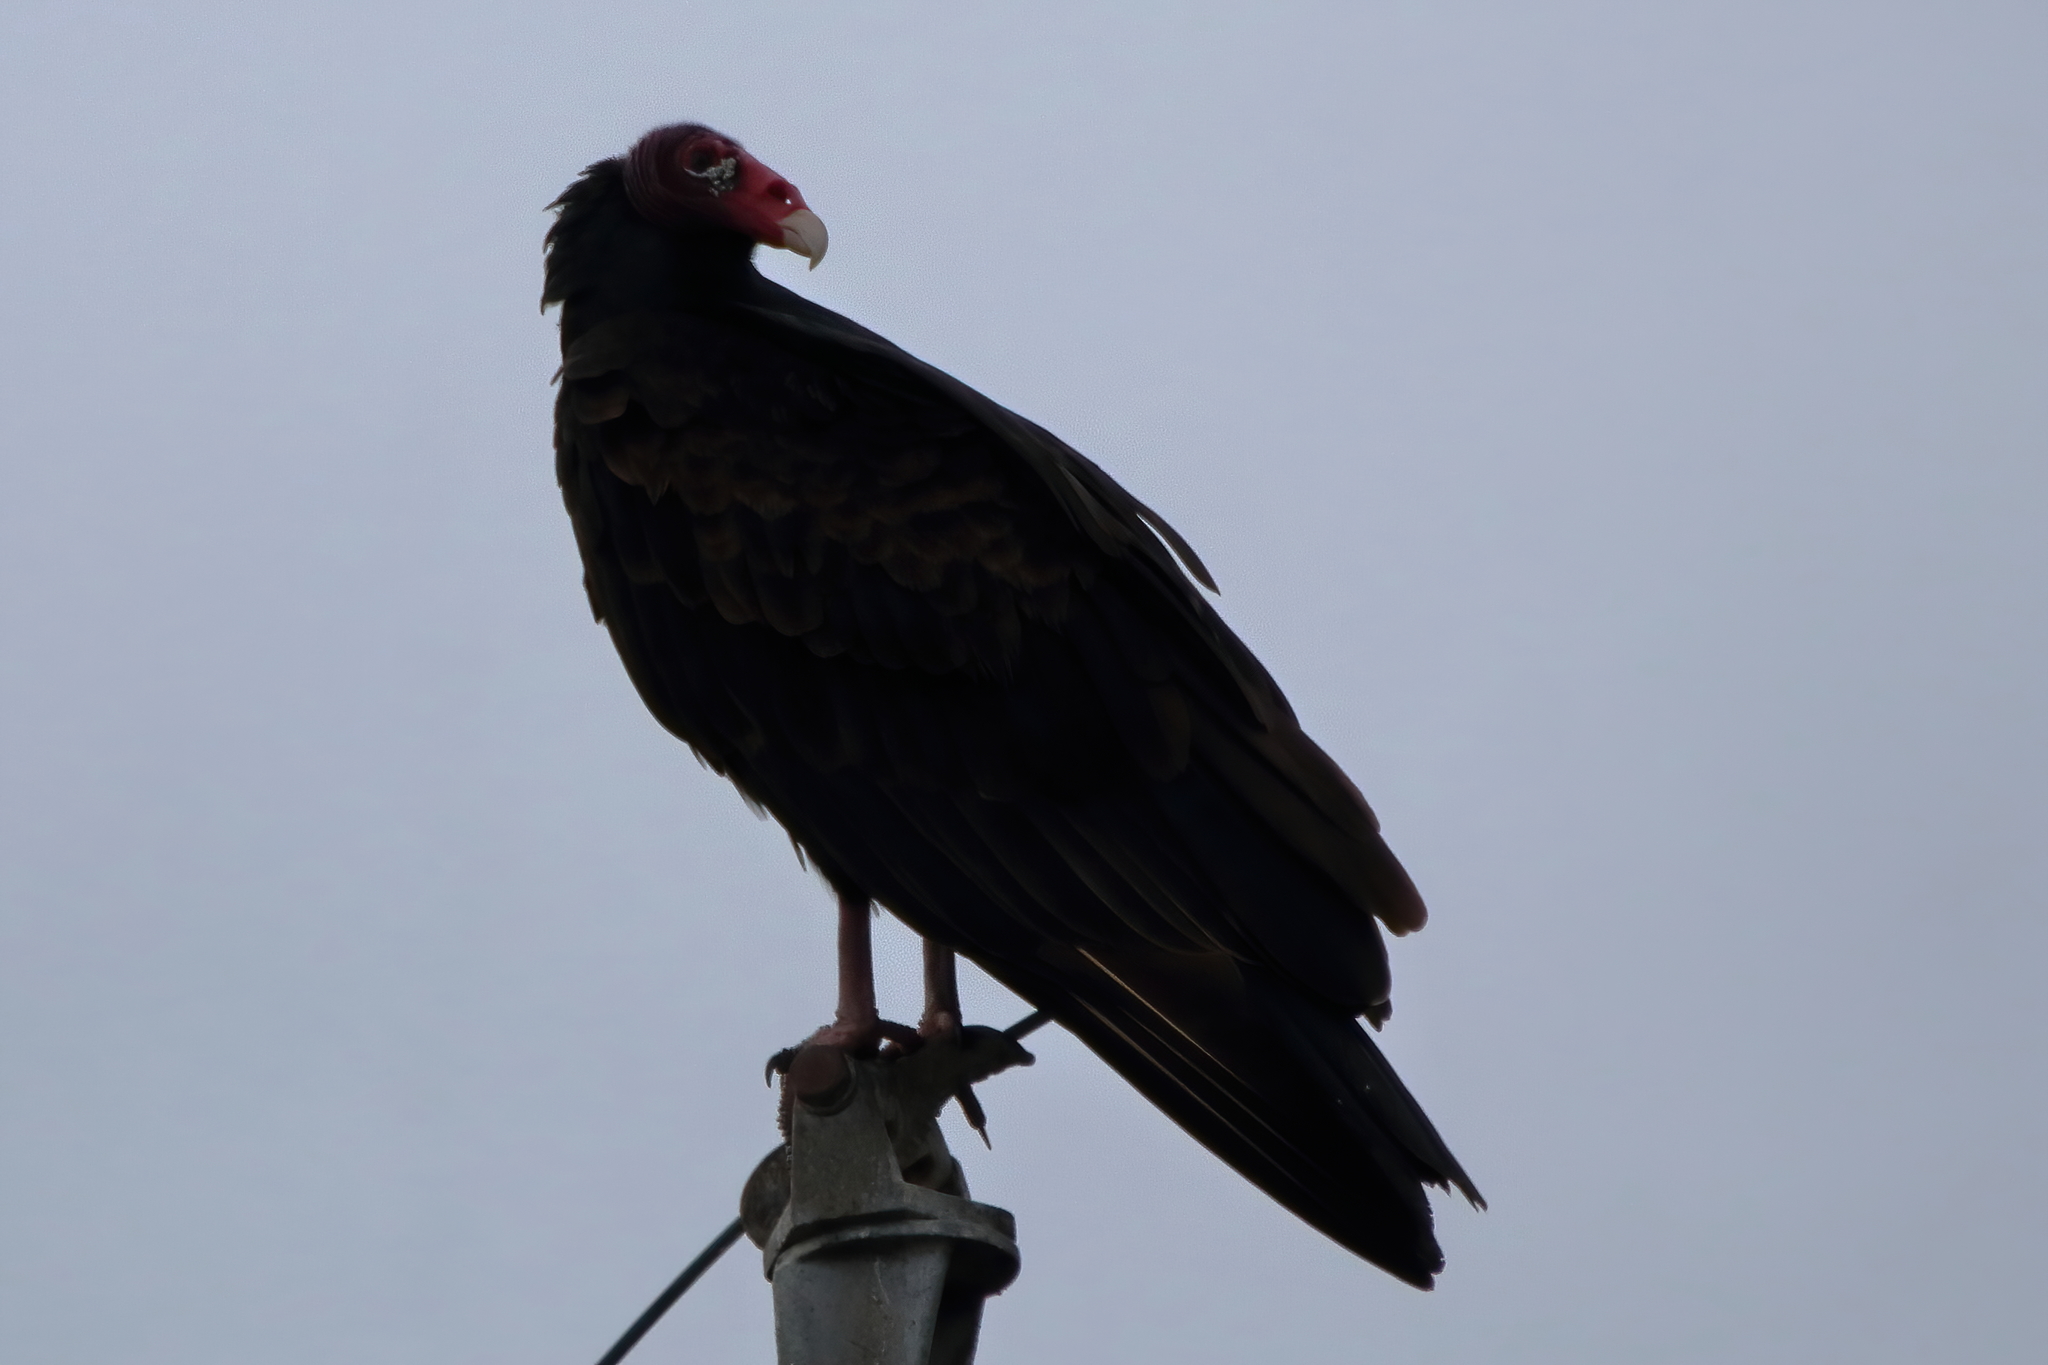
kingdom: Animalia
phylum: Chordata
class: Aves
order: Accipitriformes
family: Cathartidae
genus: Cathartes
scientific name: Cathartes aura
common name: Turkey vulture
